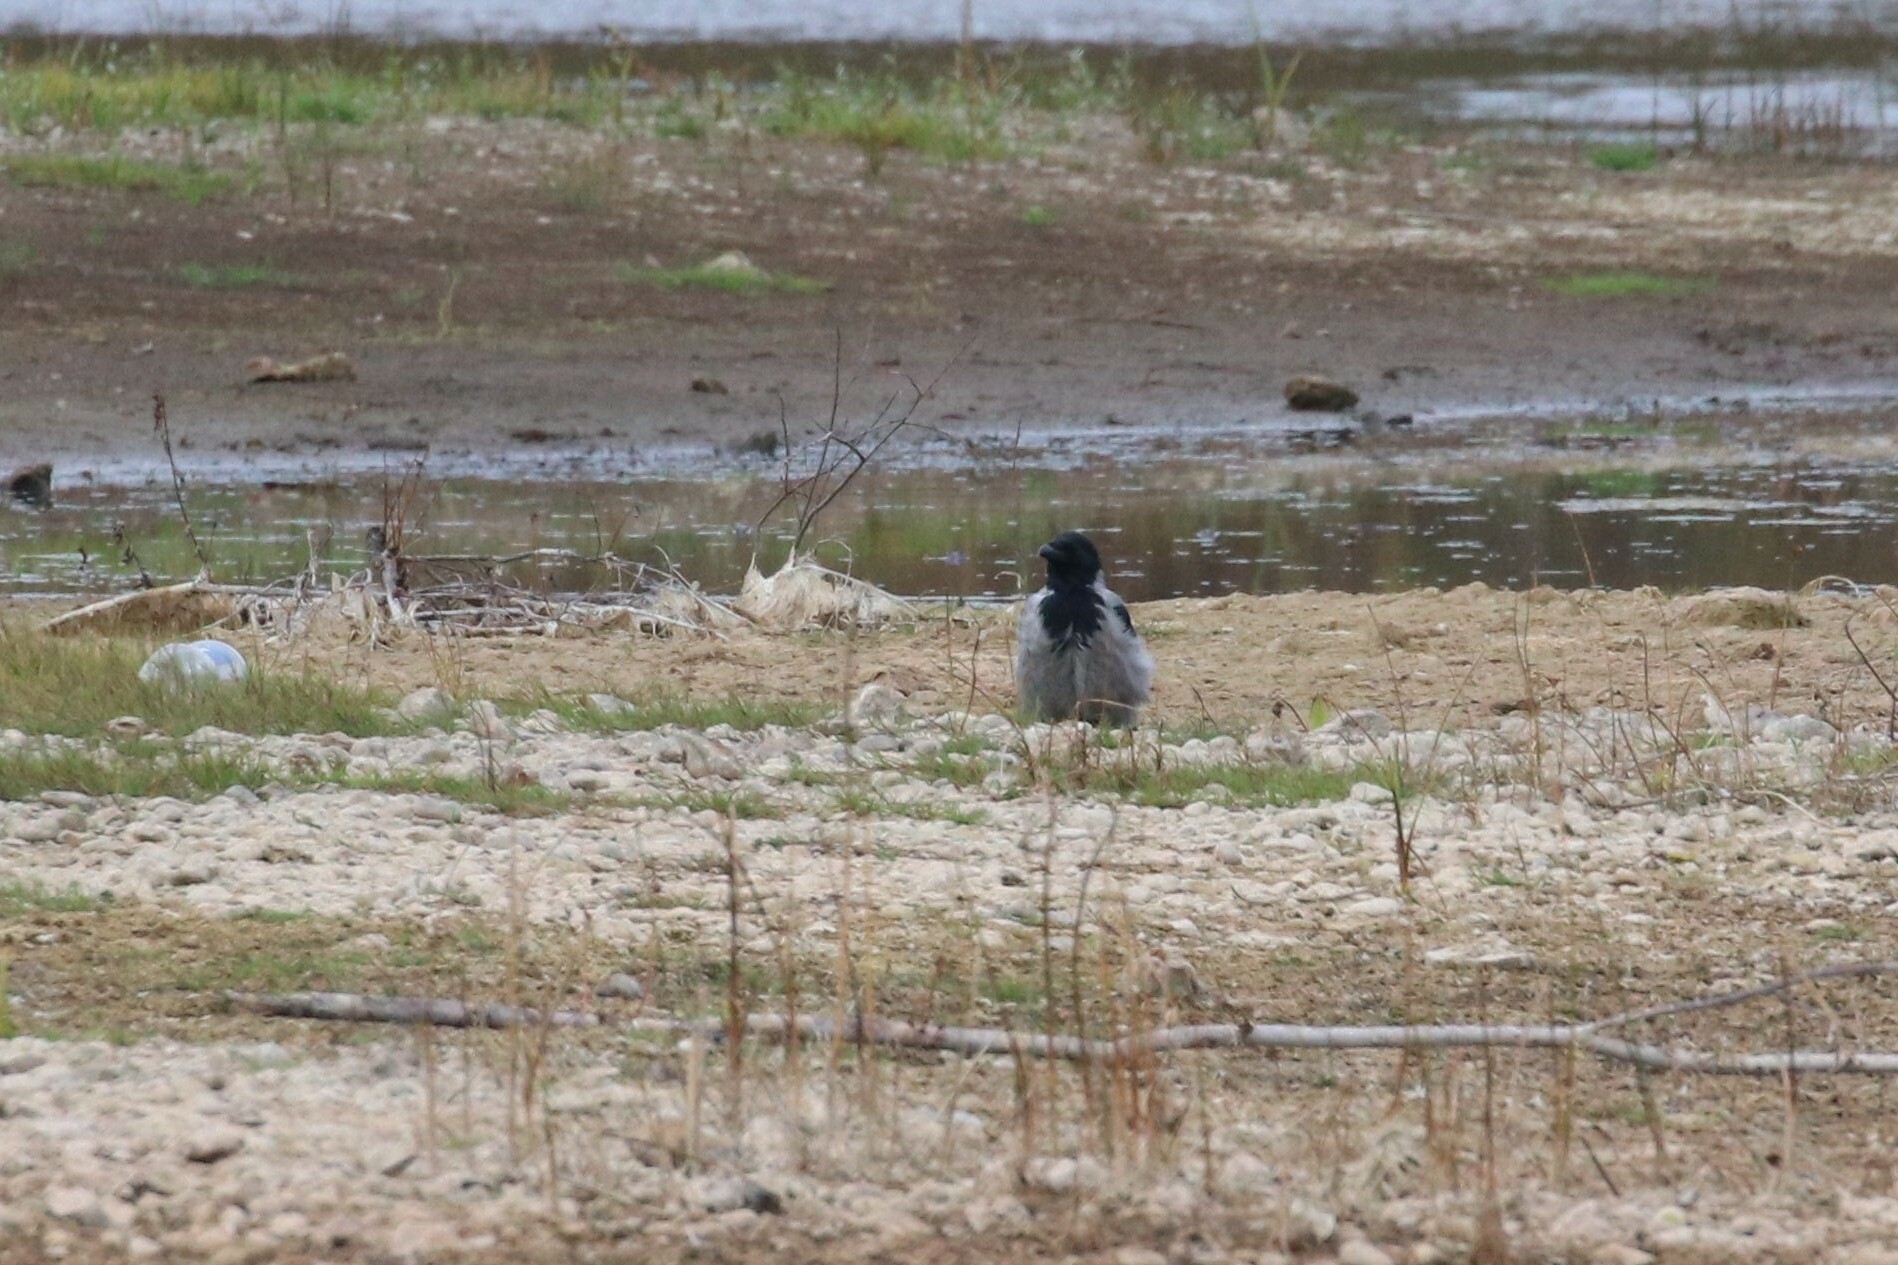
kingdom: Animalia
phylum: Chordata
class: Aves
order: Passeriformes
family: Corvidae
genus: Corvus
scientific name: Corvus cornix
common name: Hooded crow
